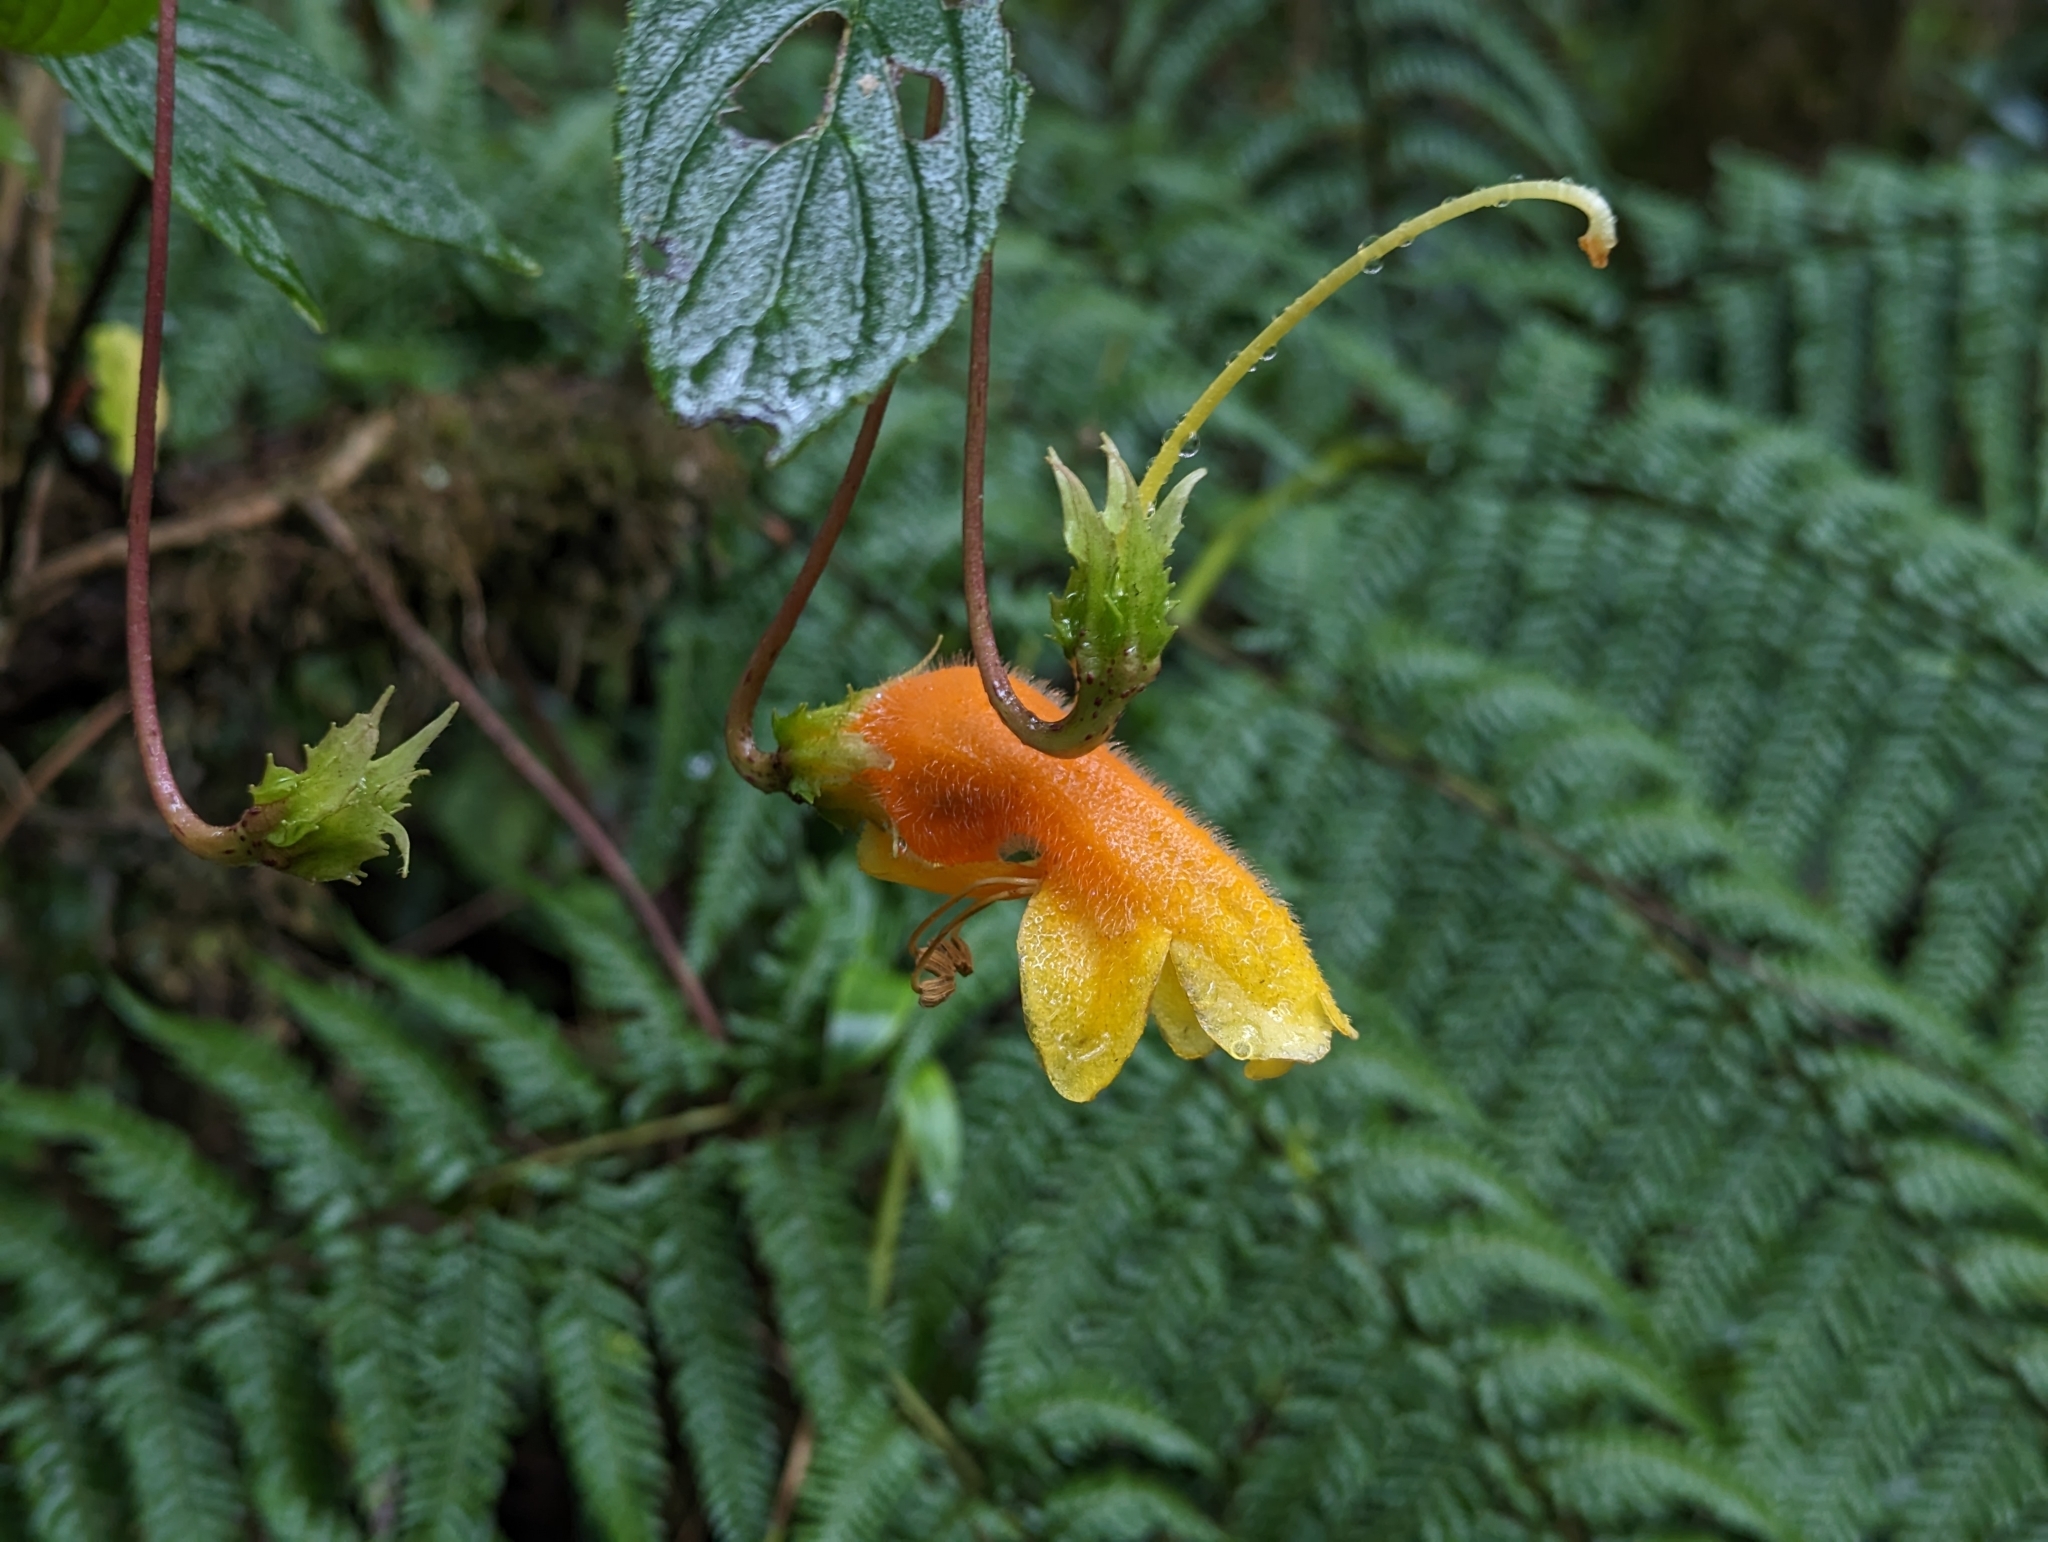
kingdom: Plantae
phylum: Tracheophyta
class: Magnoliopsida
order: Lamiales
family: Gesneriaceae
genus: Columnea
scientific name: Columnea strigosa
